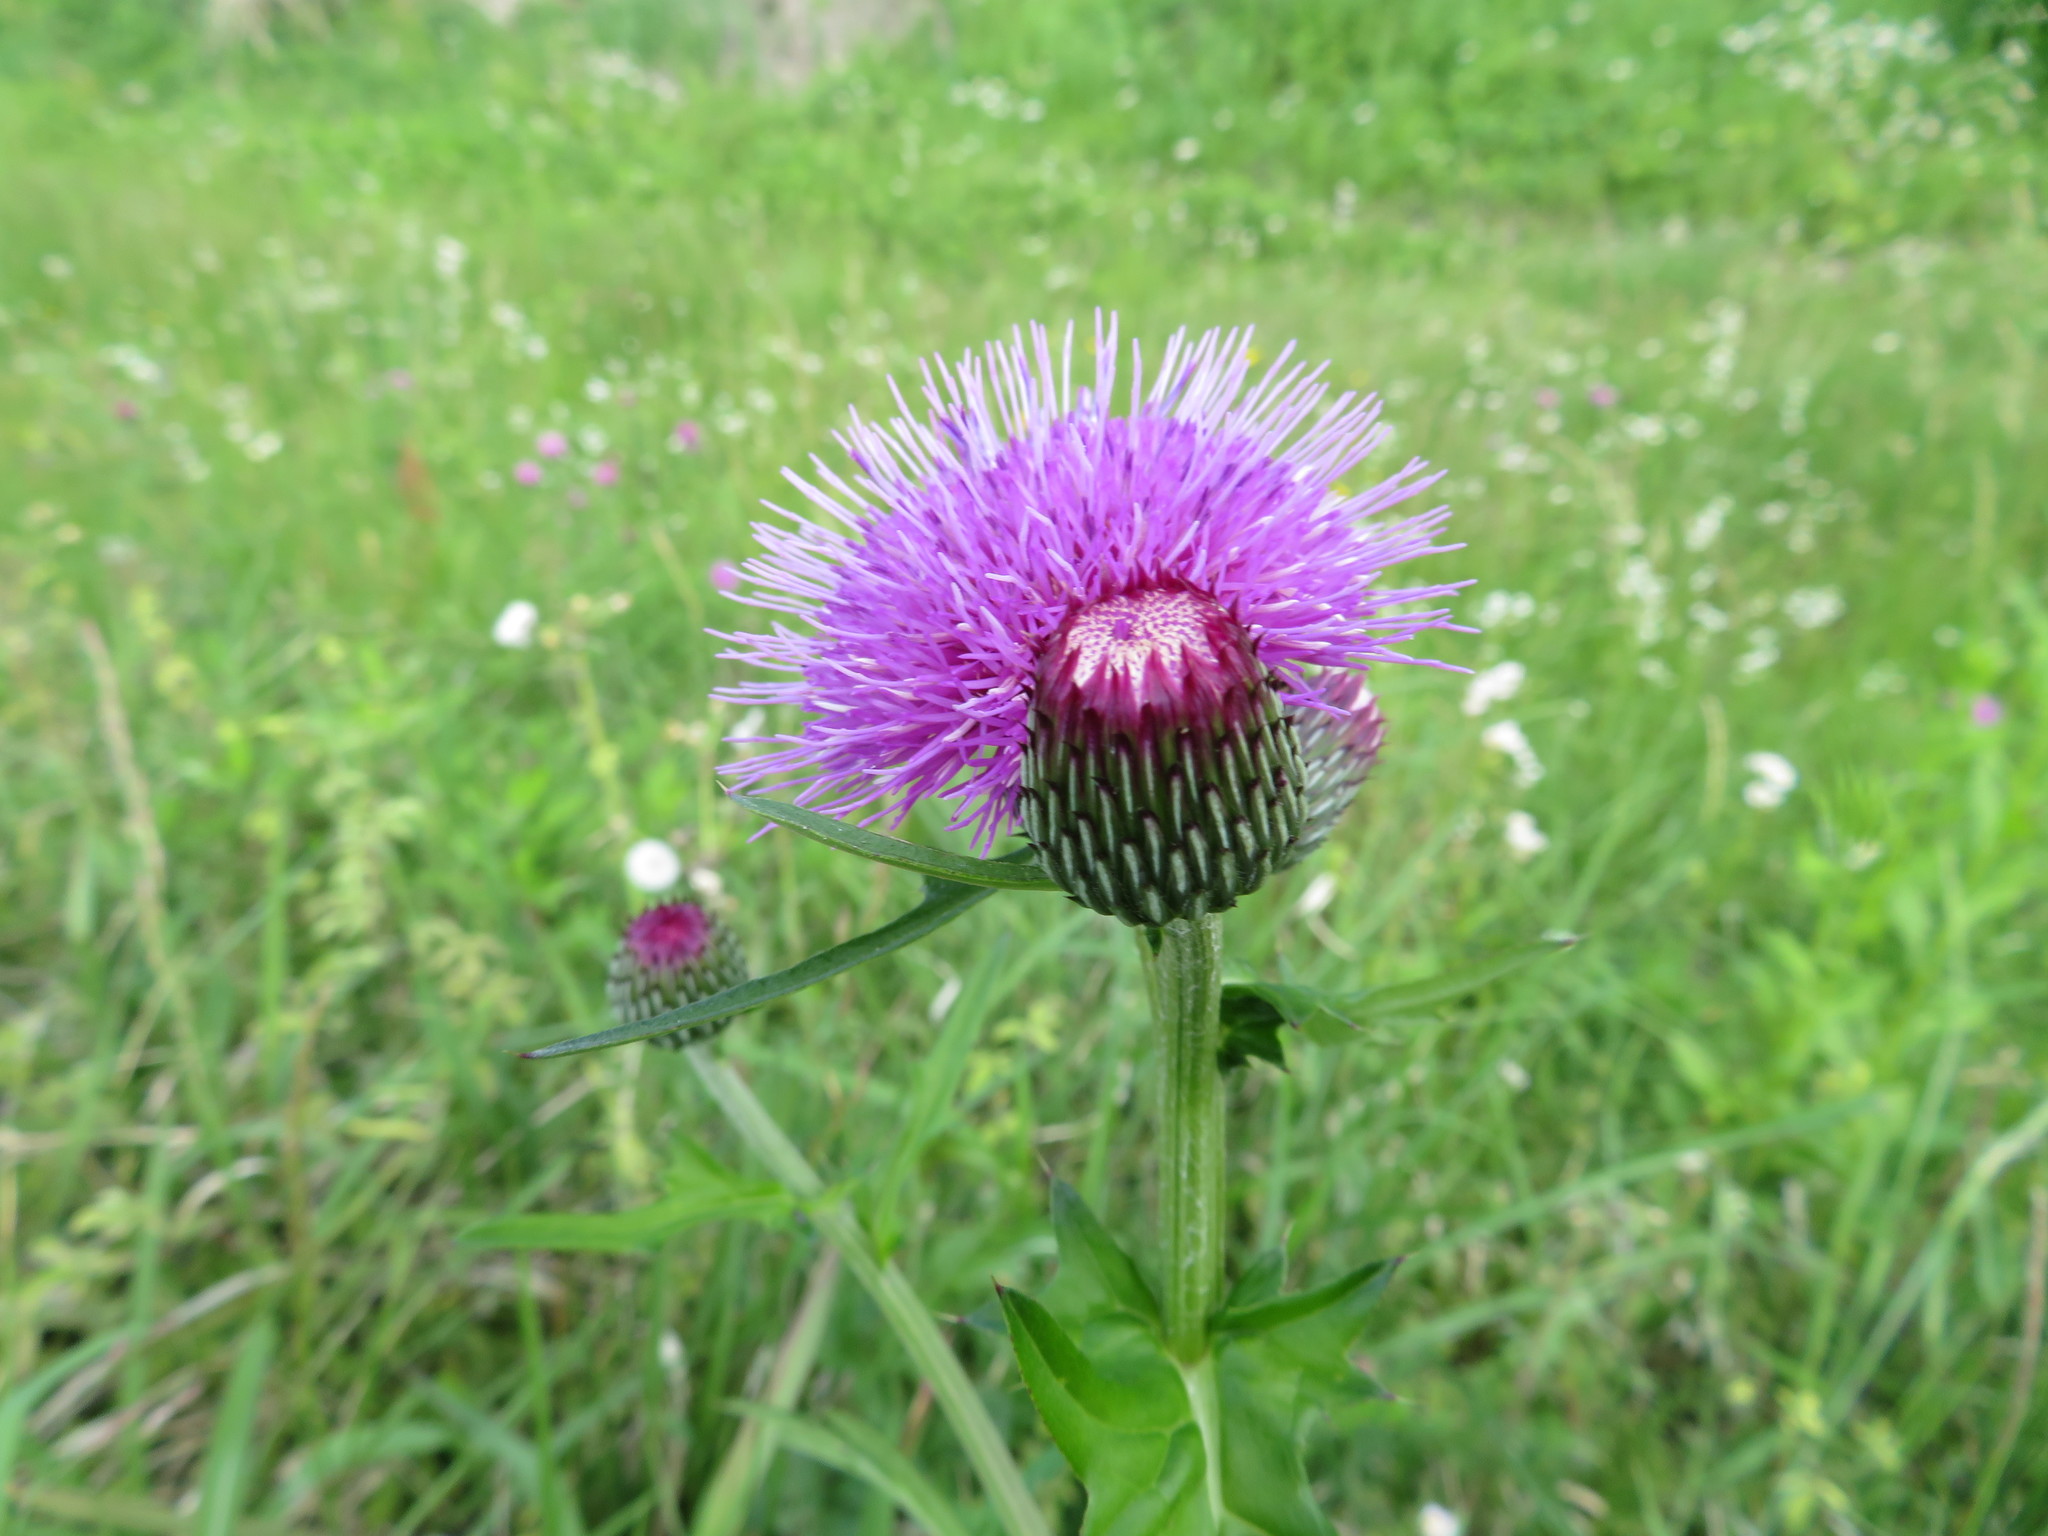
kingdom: Plantae
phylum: Tracheophyta
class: Magnoliopsida
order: Asterales
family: Asteraceae
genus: Cirsium
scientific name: Cirsium japonicum
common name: Japanese thistle
